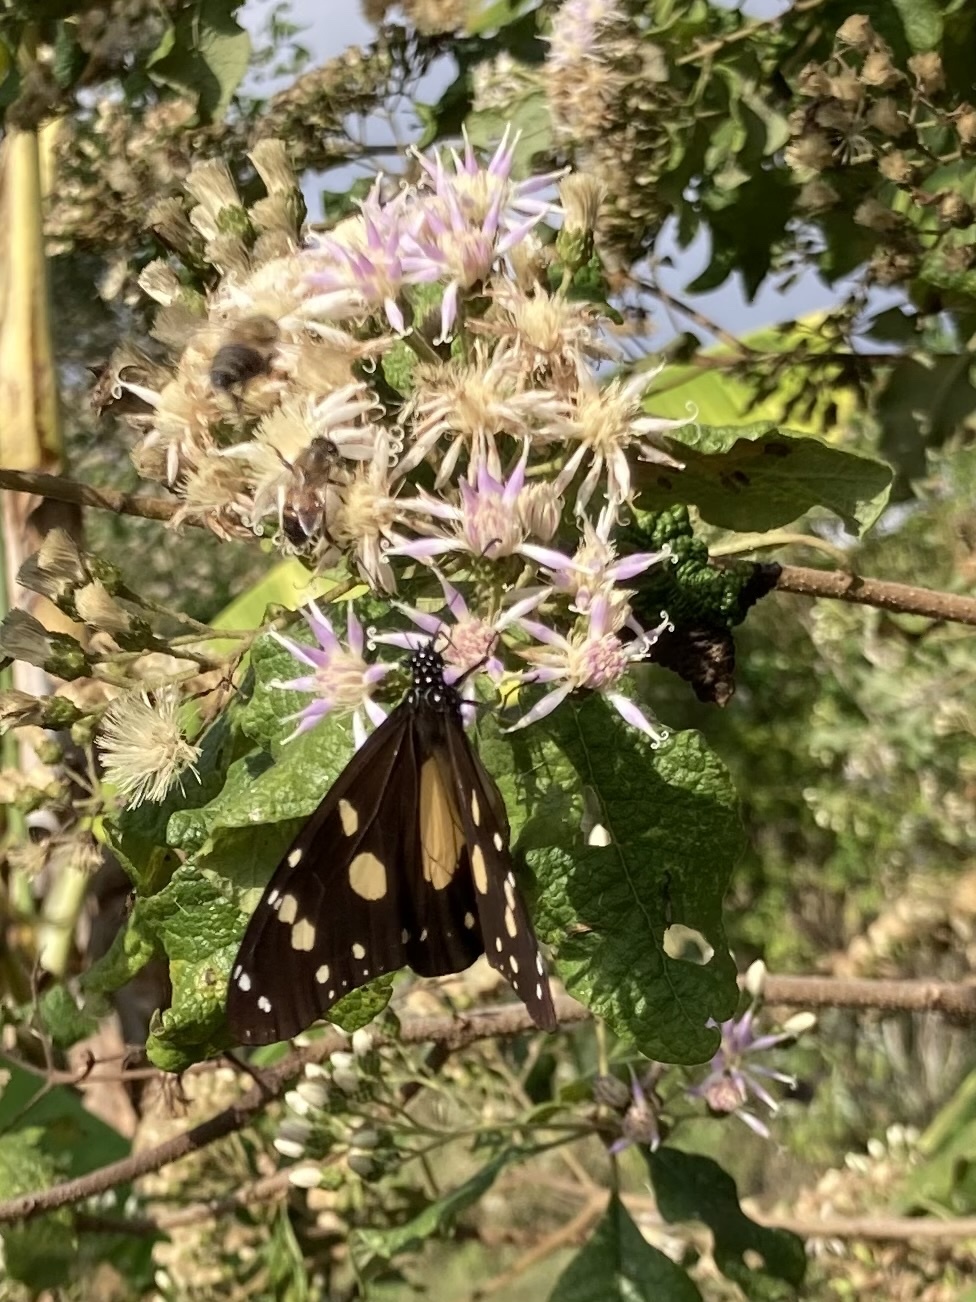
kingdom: Animalia
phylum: Arthropoda
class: Insecta
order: Lepidoptera
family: Nymphalidae
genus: Amauris
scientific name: Amauris echeria
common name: Chief
